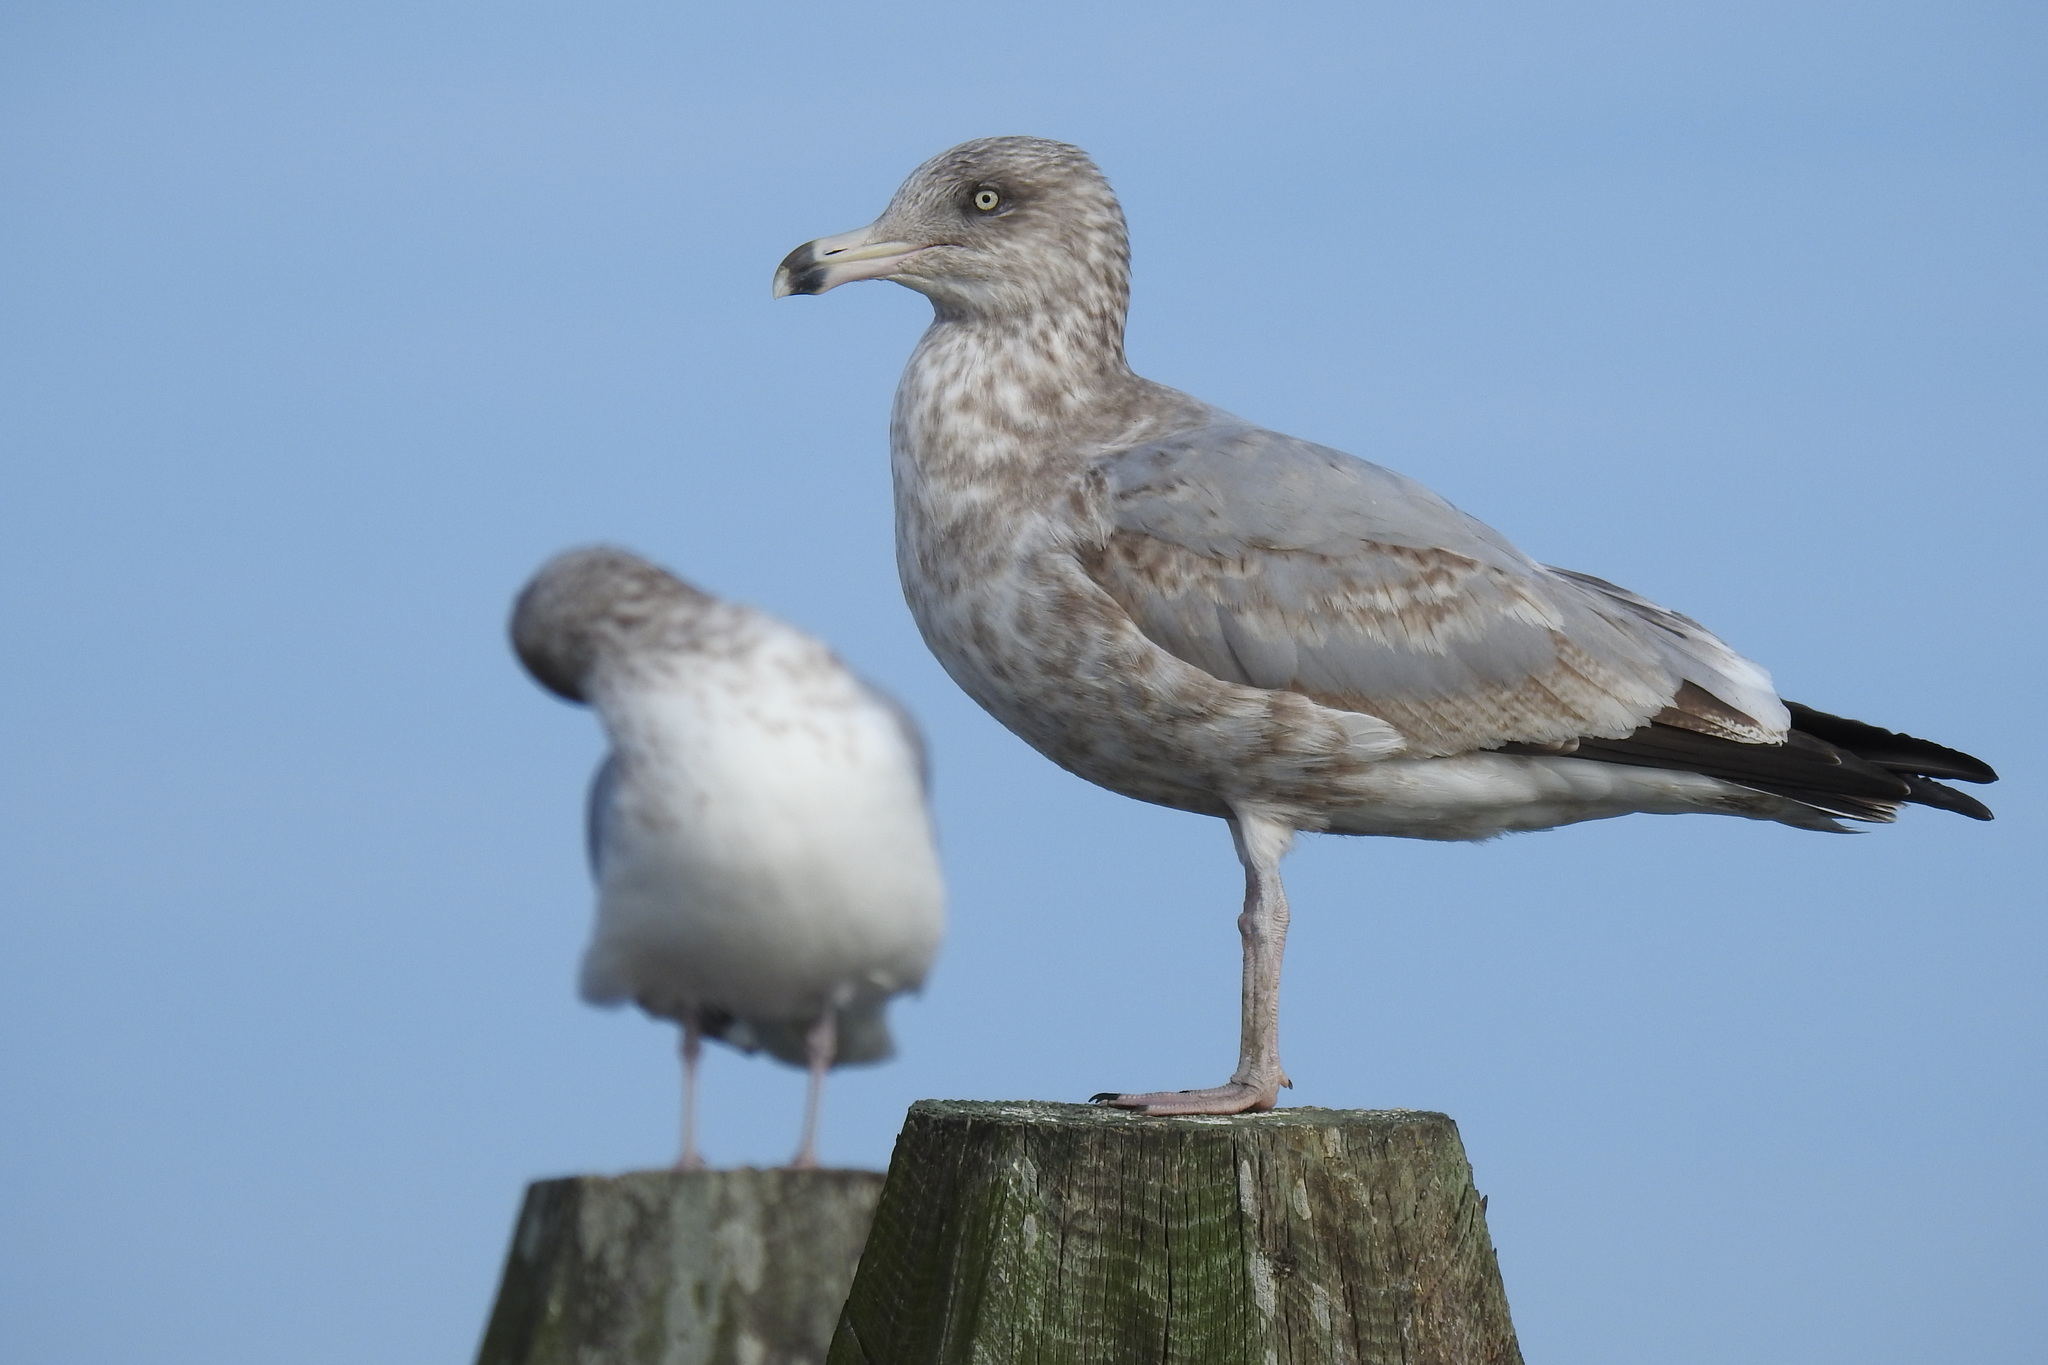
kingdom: Animalia
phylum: Chordata
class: Aves
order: Charadriiformes
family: Laridae
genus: Larus
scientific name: Larus argentatus
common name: Herring gull
